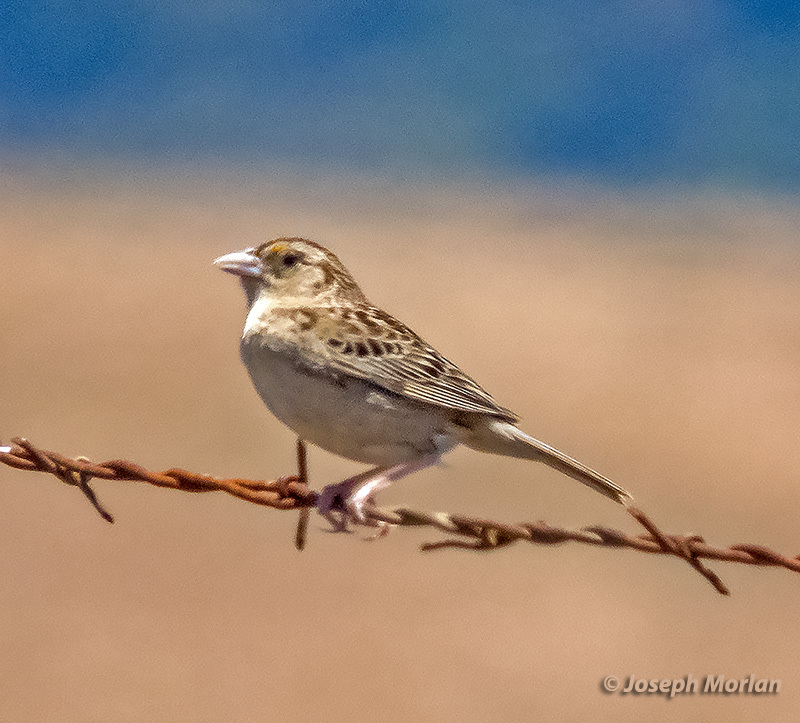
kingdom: Animalia
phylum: Chordata
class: Aves
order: Passeriformes
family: Passerellidae
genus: Ammodramus
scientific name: Ammodramus savannarum
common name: Grasshopper sparrow
